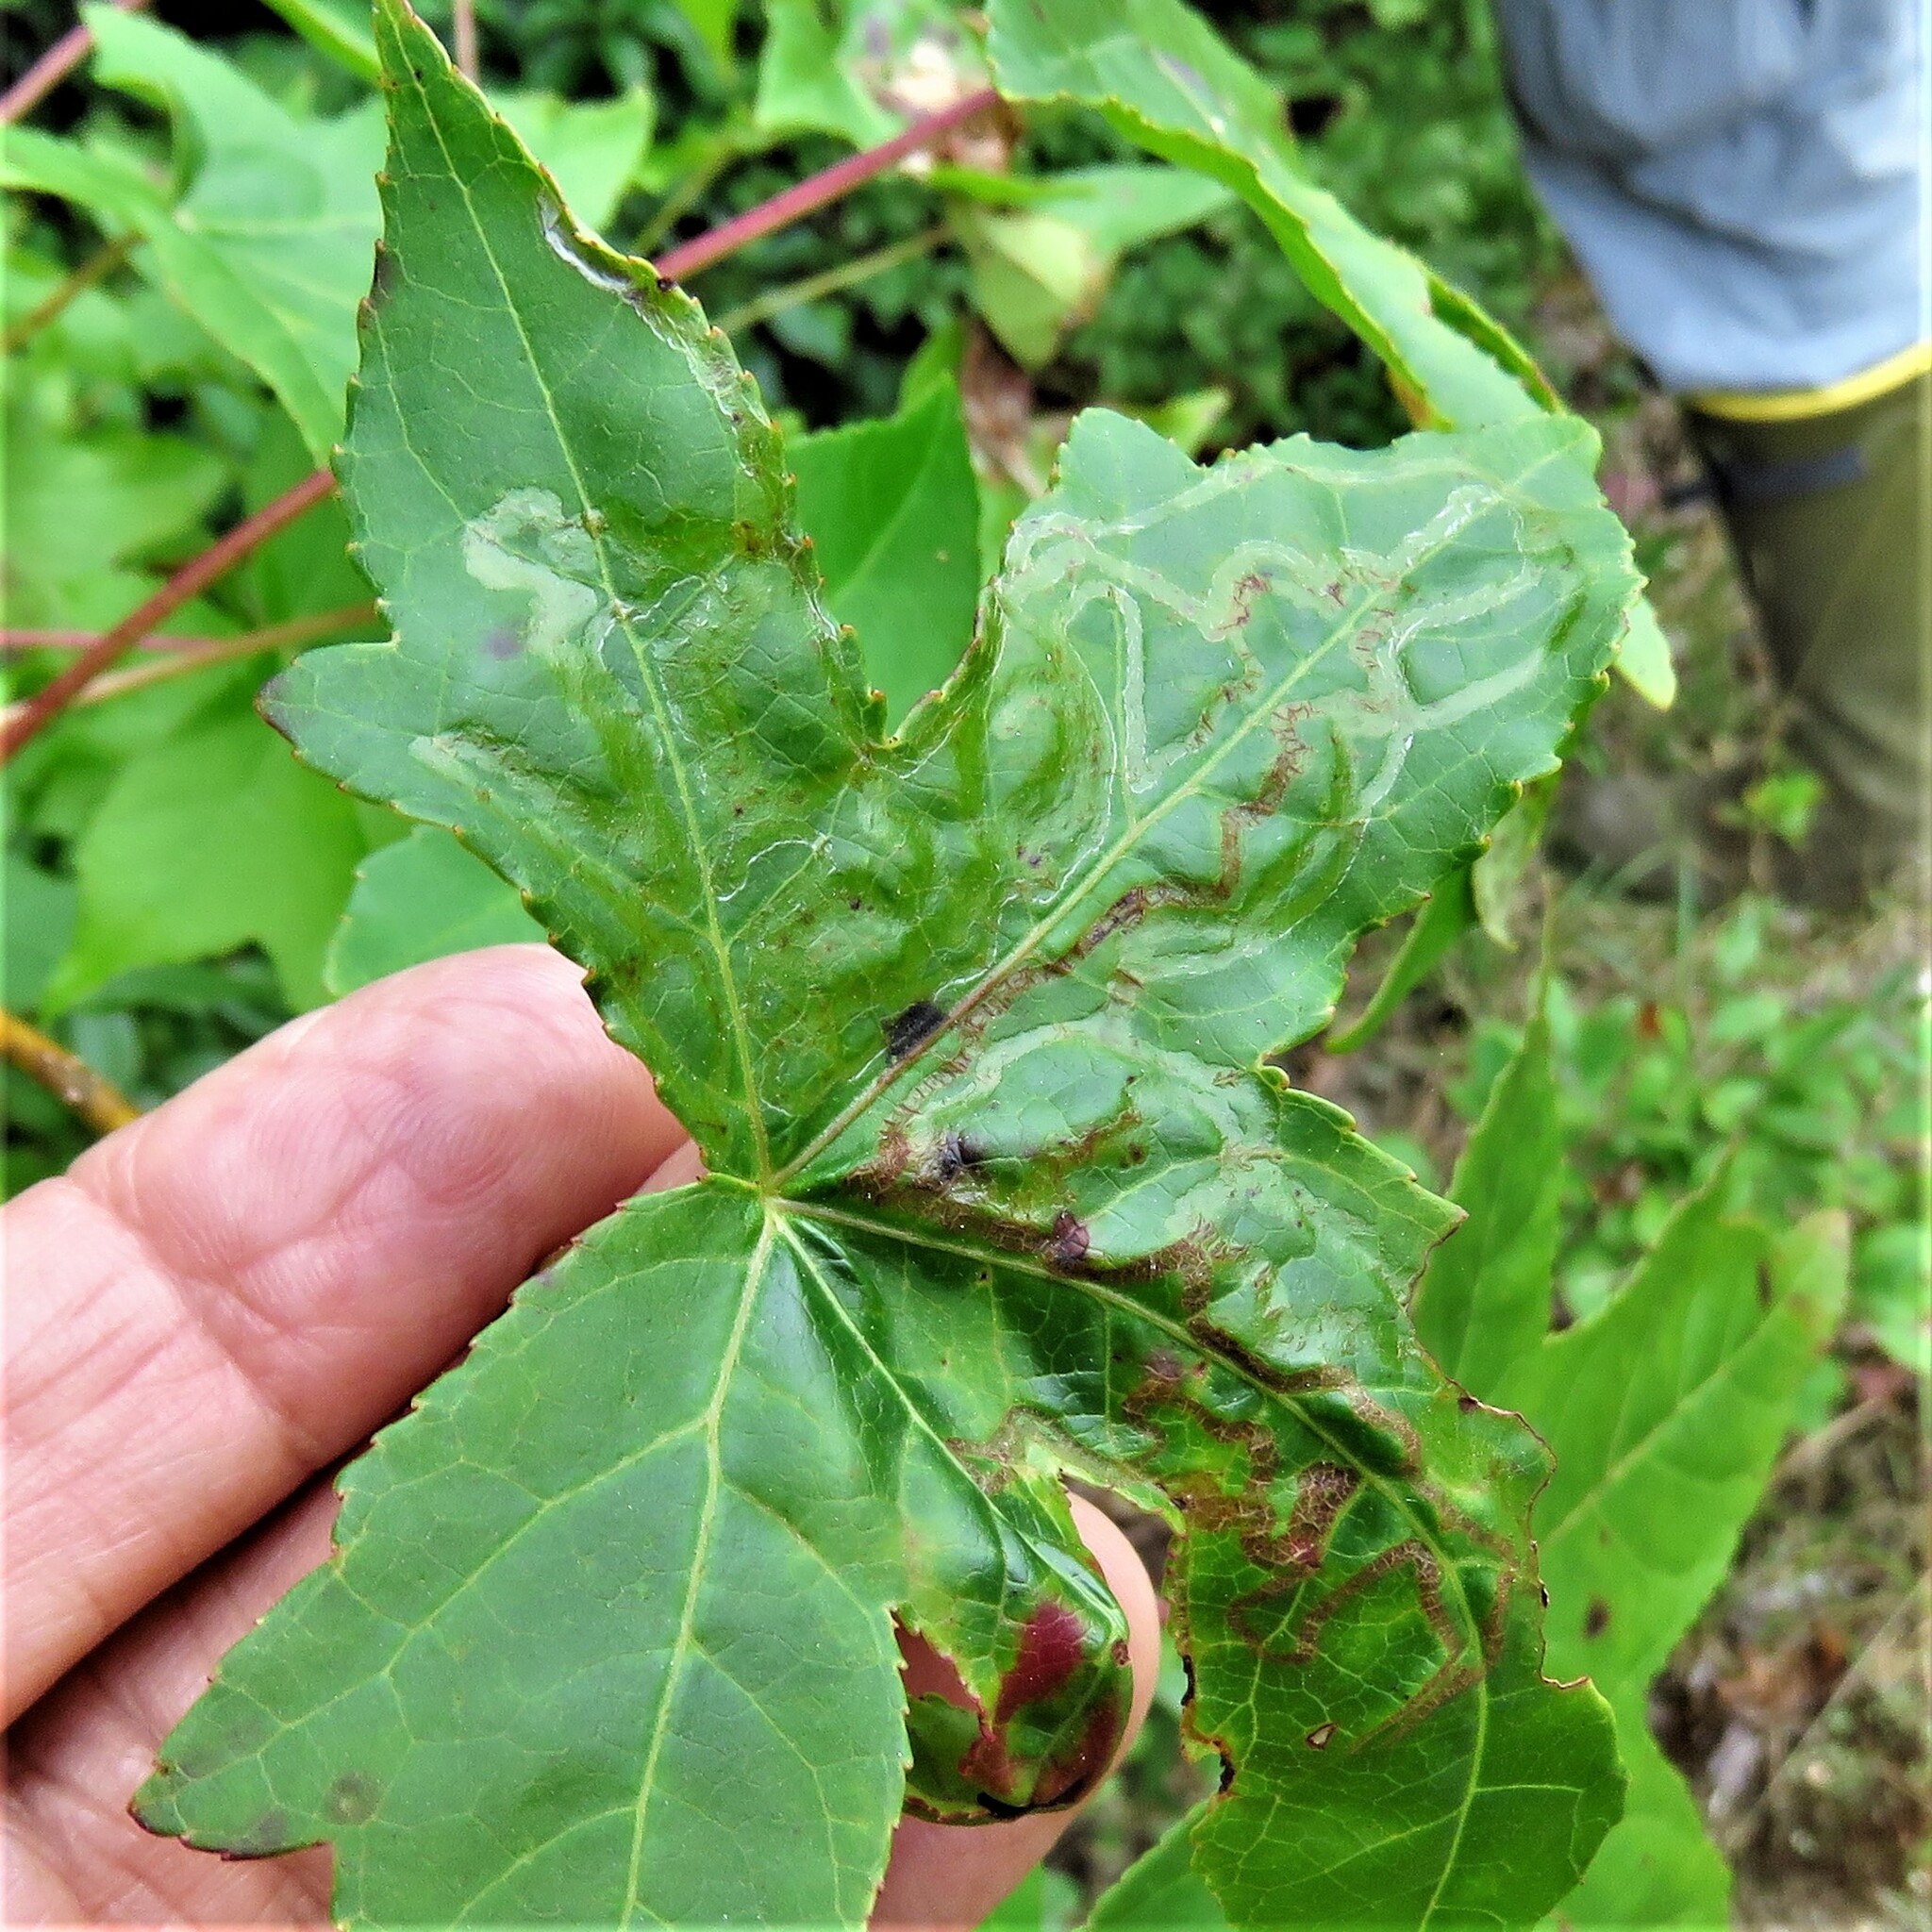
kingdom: Animalia
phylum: Arthropoda
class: Insecta
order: Lepidoptera
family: Gracillariidae
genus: Phyllocnistis
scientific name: Phyllocnistis liquidambarisella
